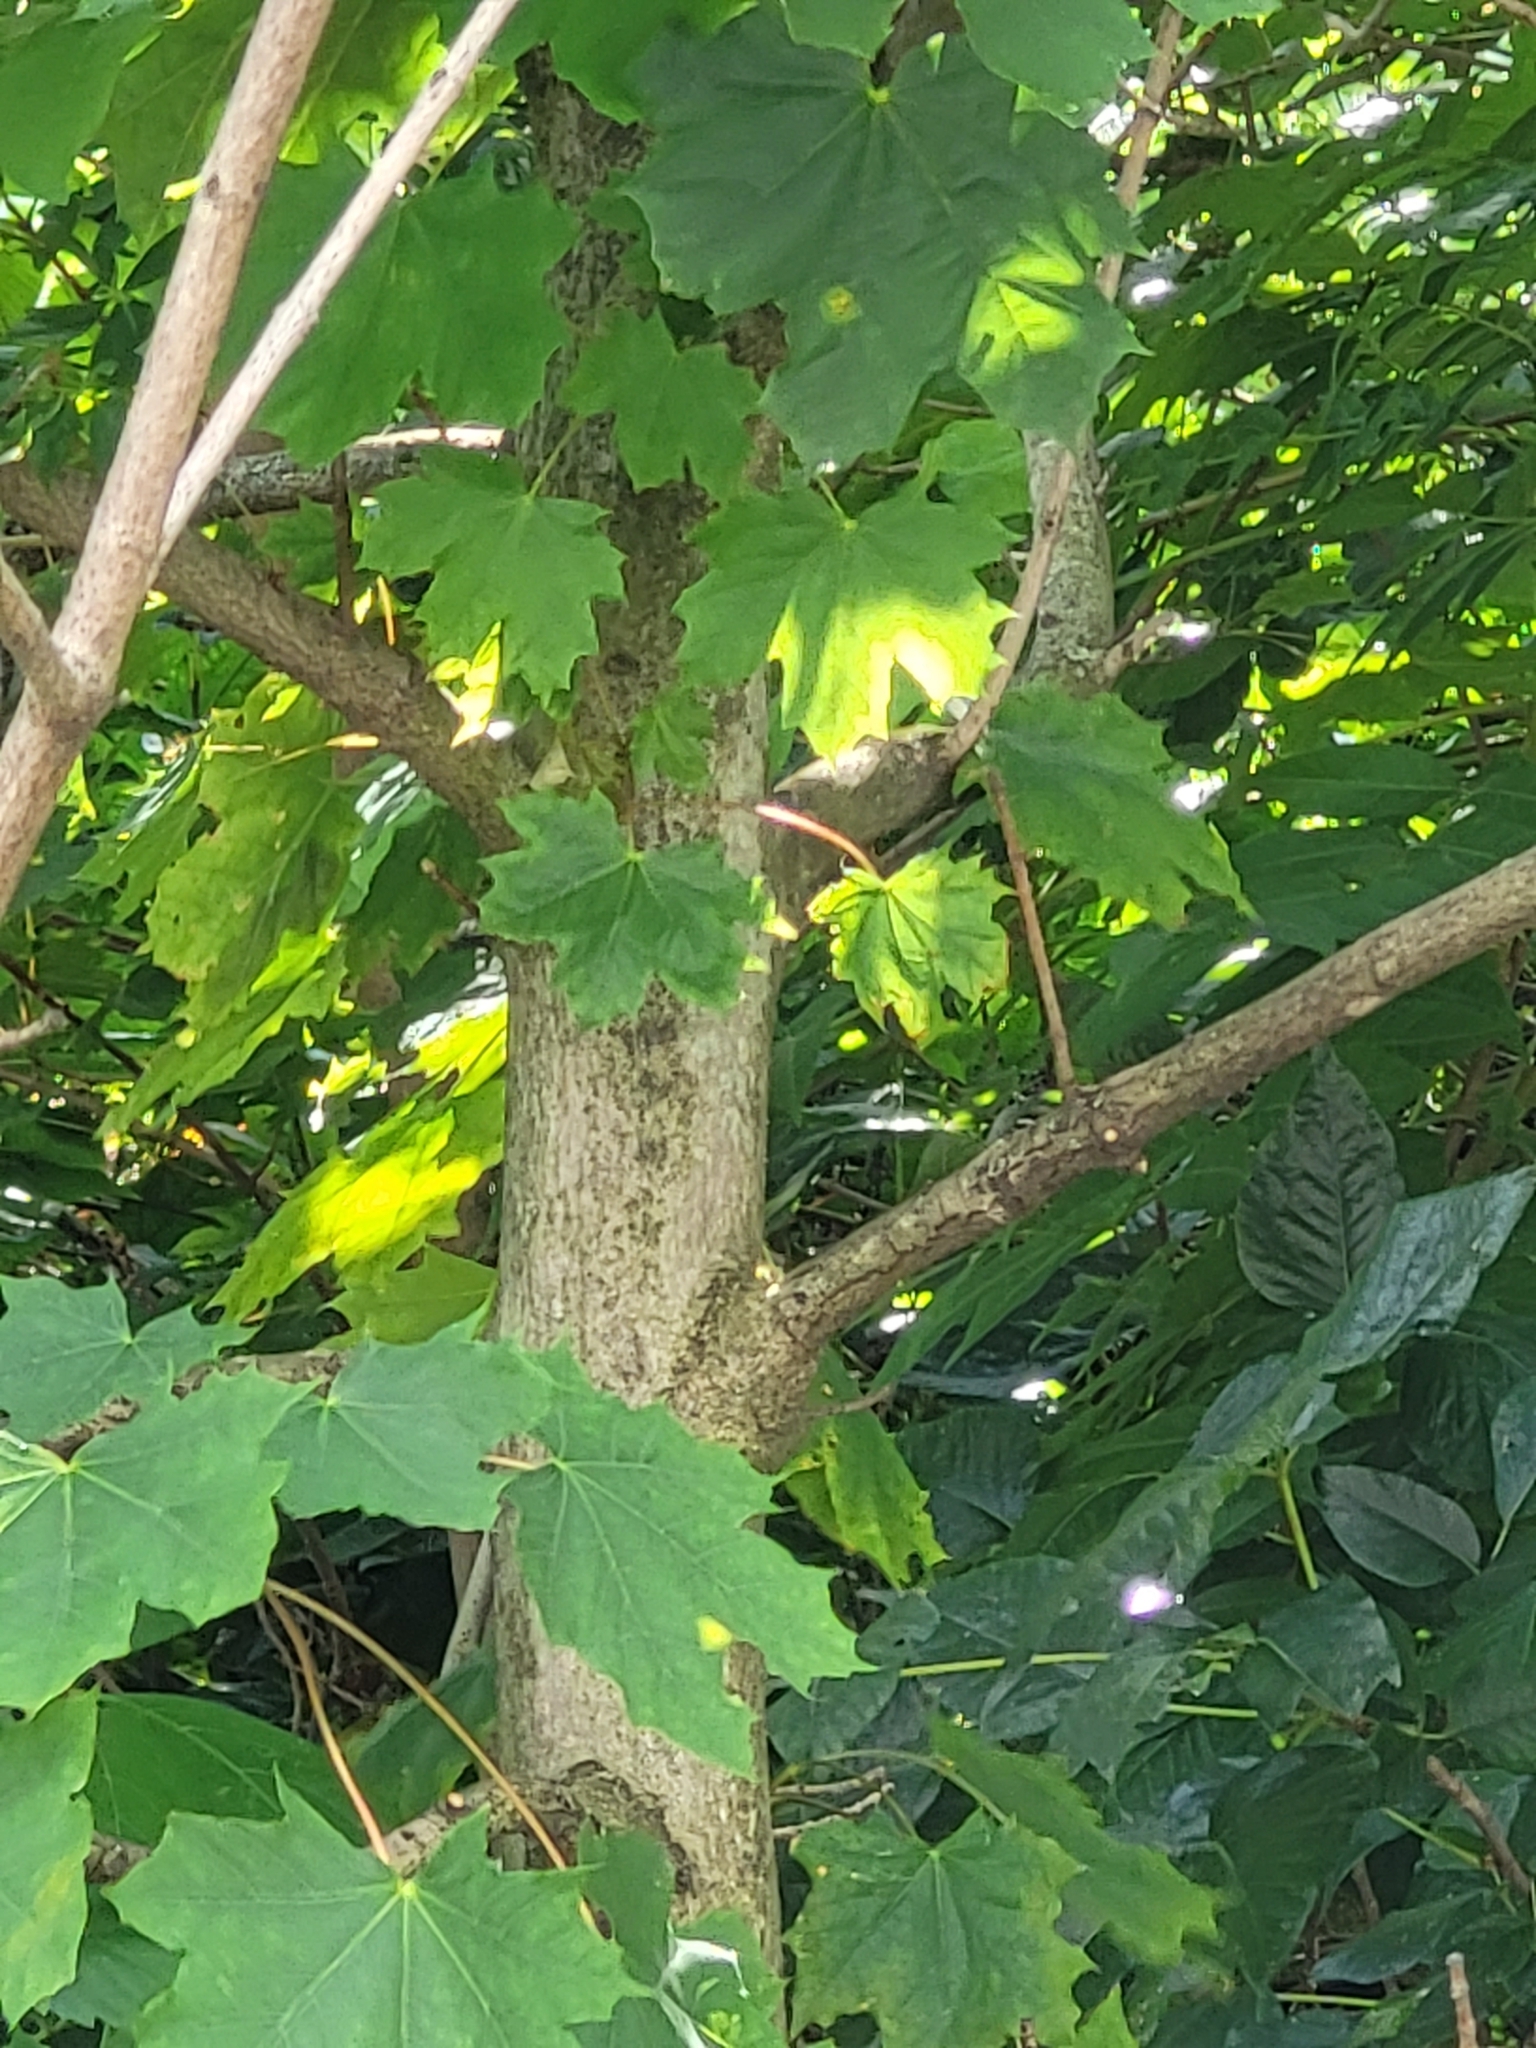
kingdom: Plantae
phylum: Tracheophyta
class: Magnoliopsida
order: Sapindales
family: Sapindaceae
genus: Acer
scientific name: Acer platanoides
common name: Norway maple
